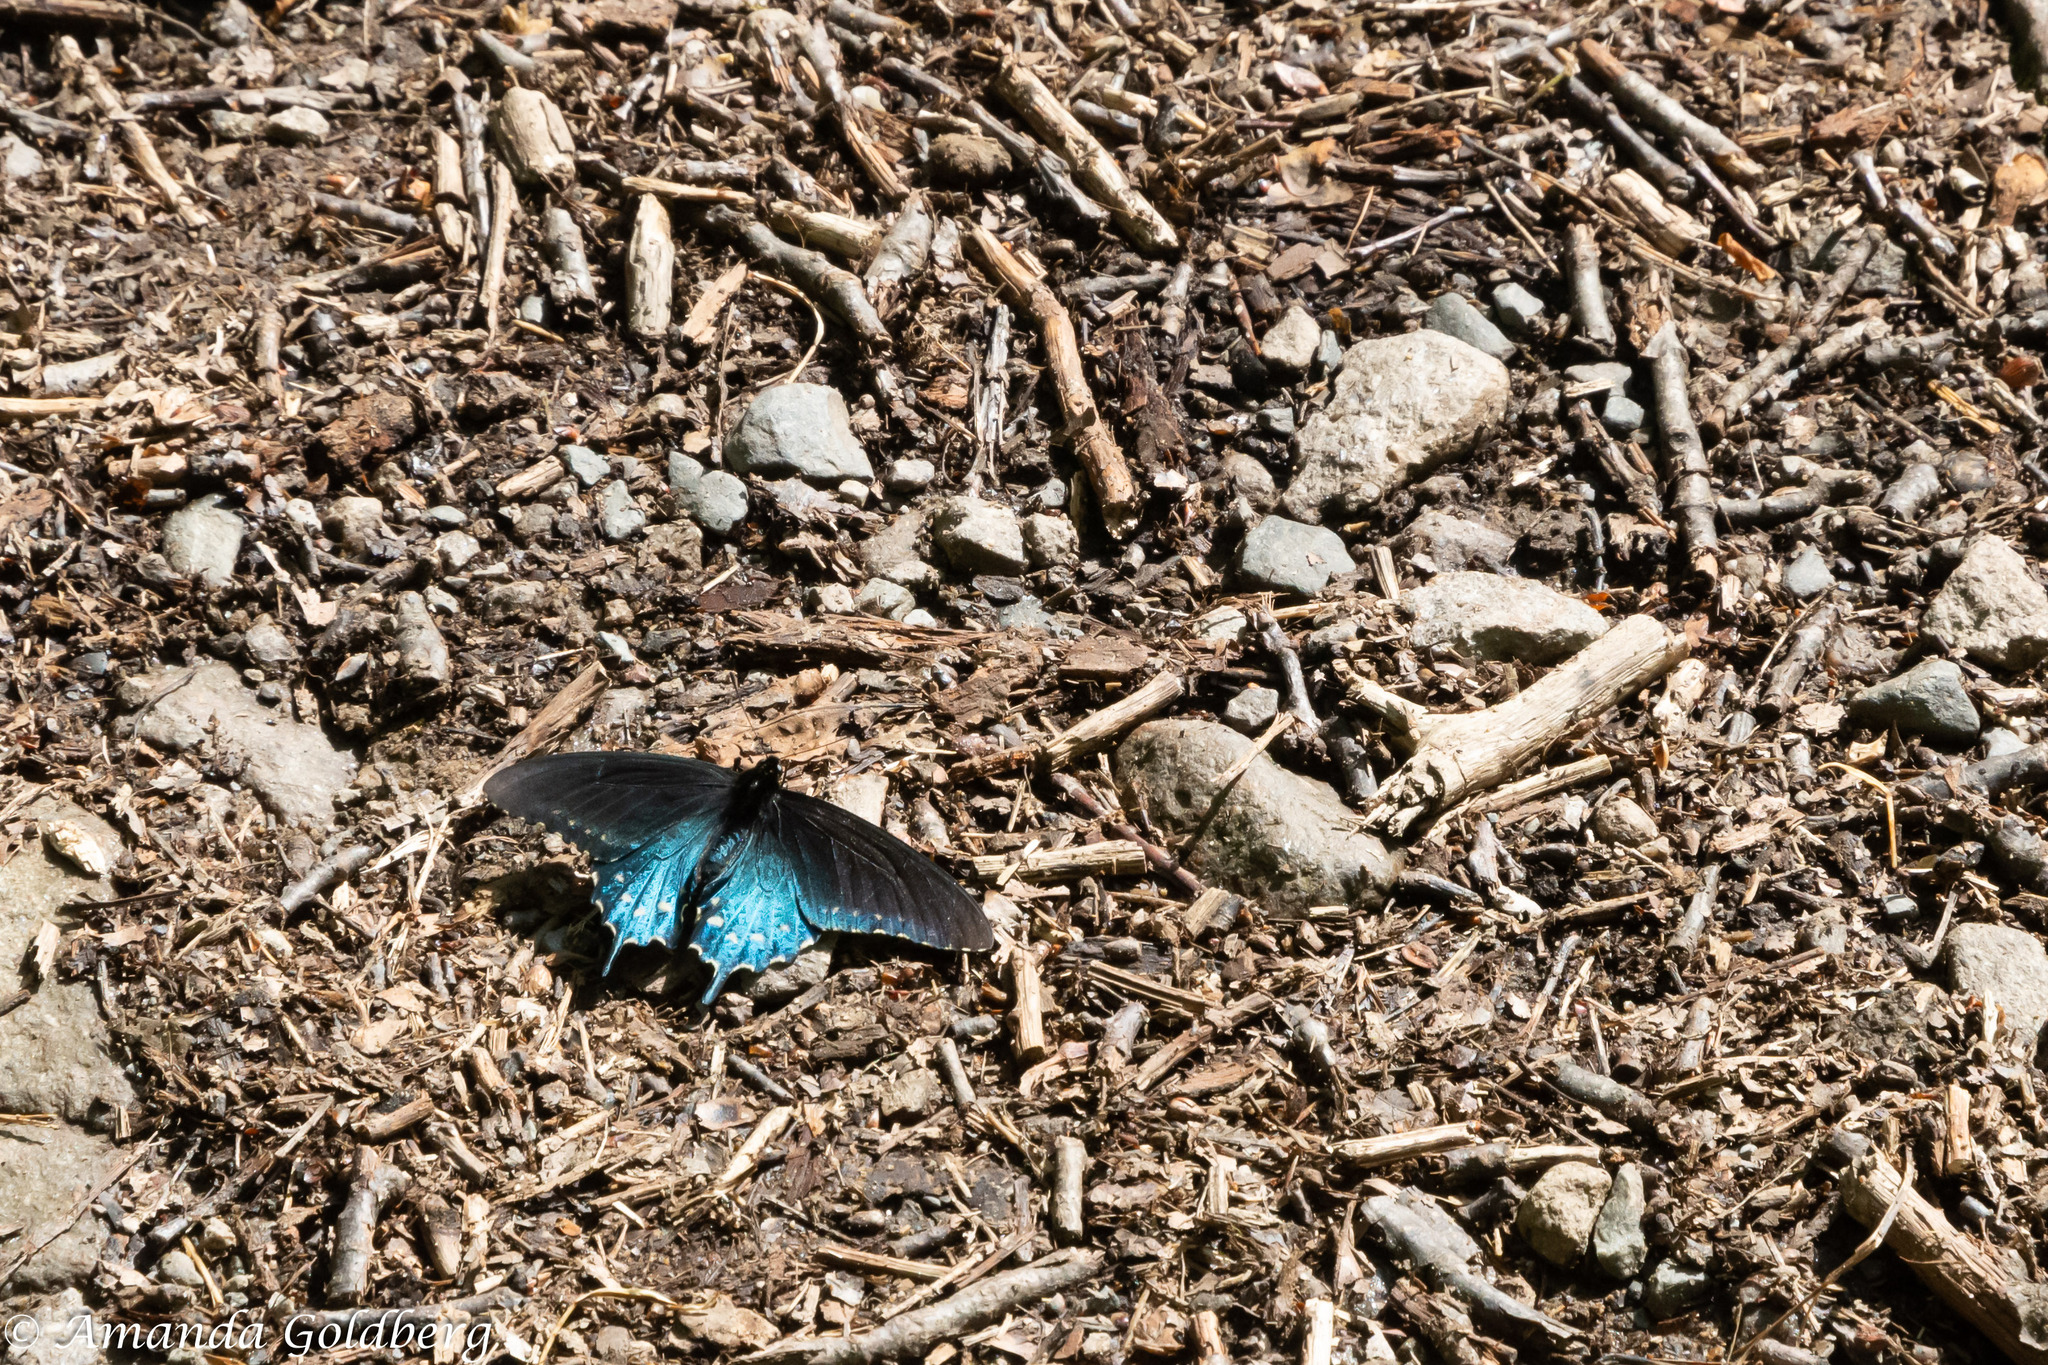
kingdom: Animalia
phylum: Arthropoda
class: Insecta
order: Lepidoptera
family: Papilionidae
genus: Battus
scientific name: Battus philenor
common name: Pipevine swallowtail
